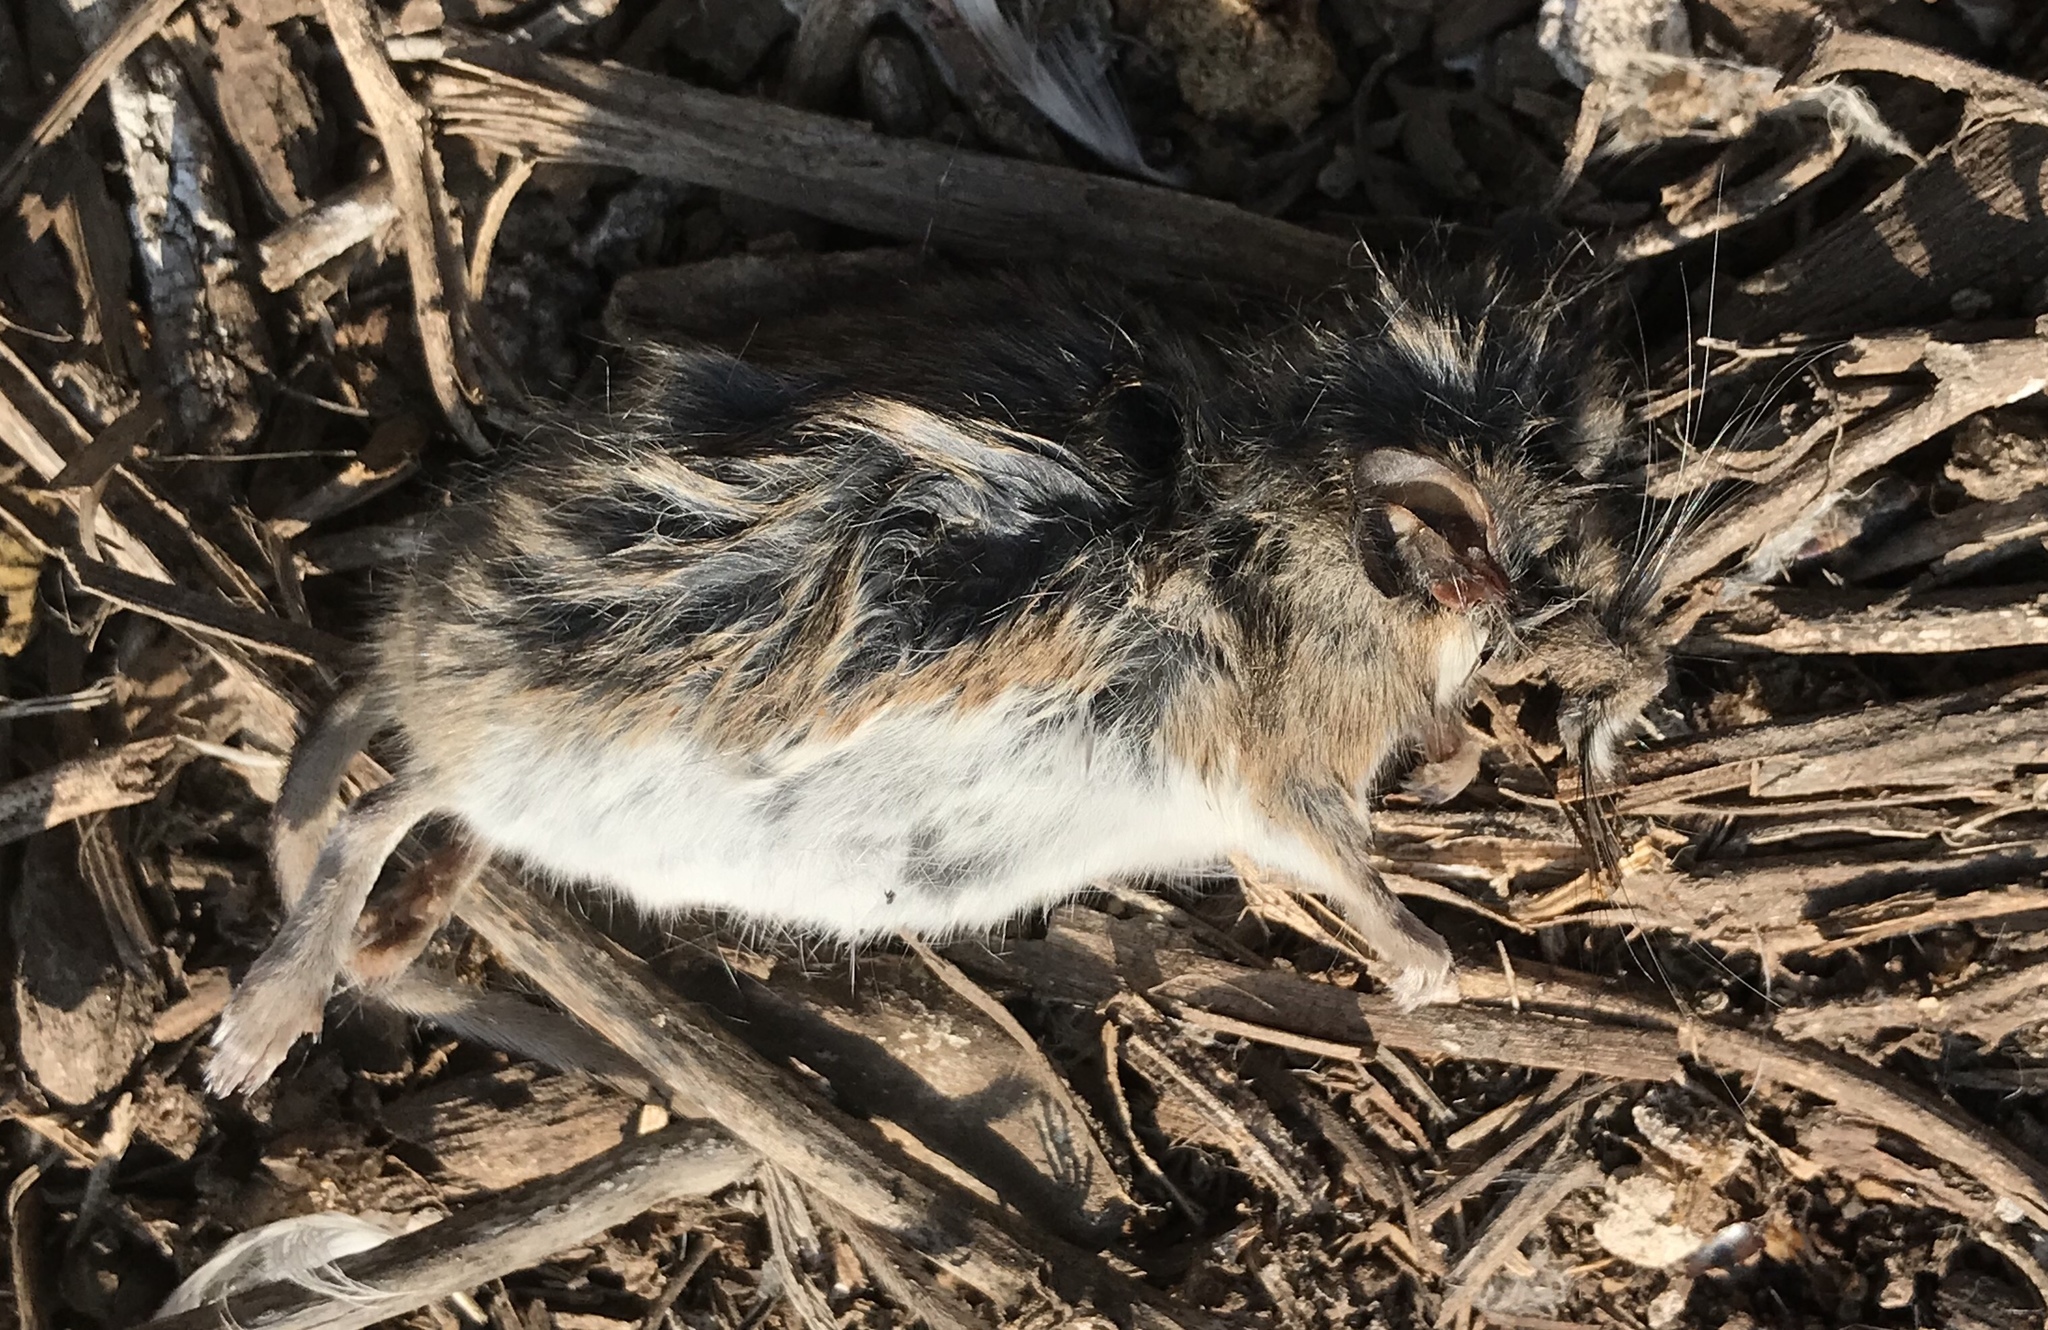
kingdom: Animalia
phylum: Chordata
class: Mammalia
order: Rodentia
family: Cricetidae
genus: Peromyscus
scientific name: Peromyscus maniculatus
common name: Deer mouse
